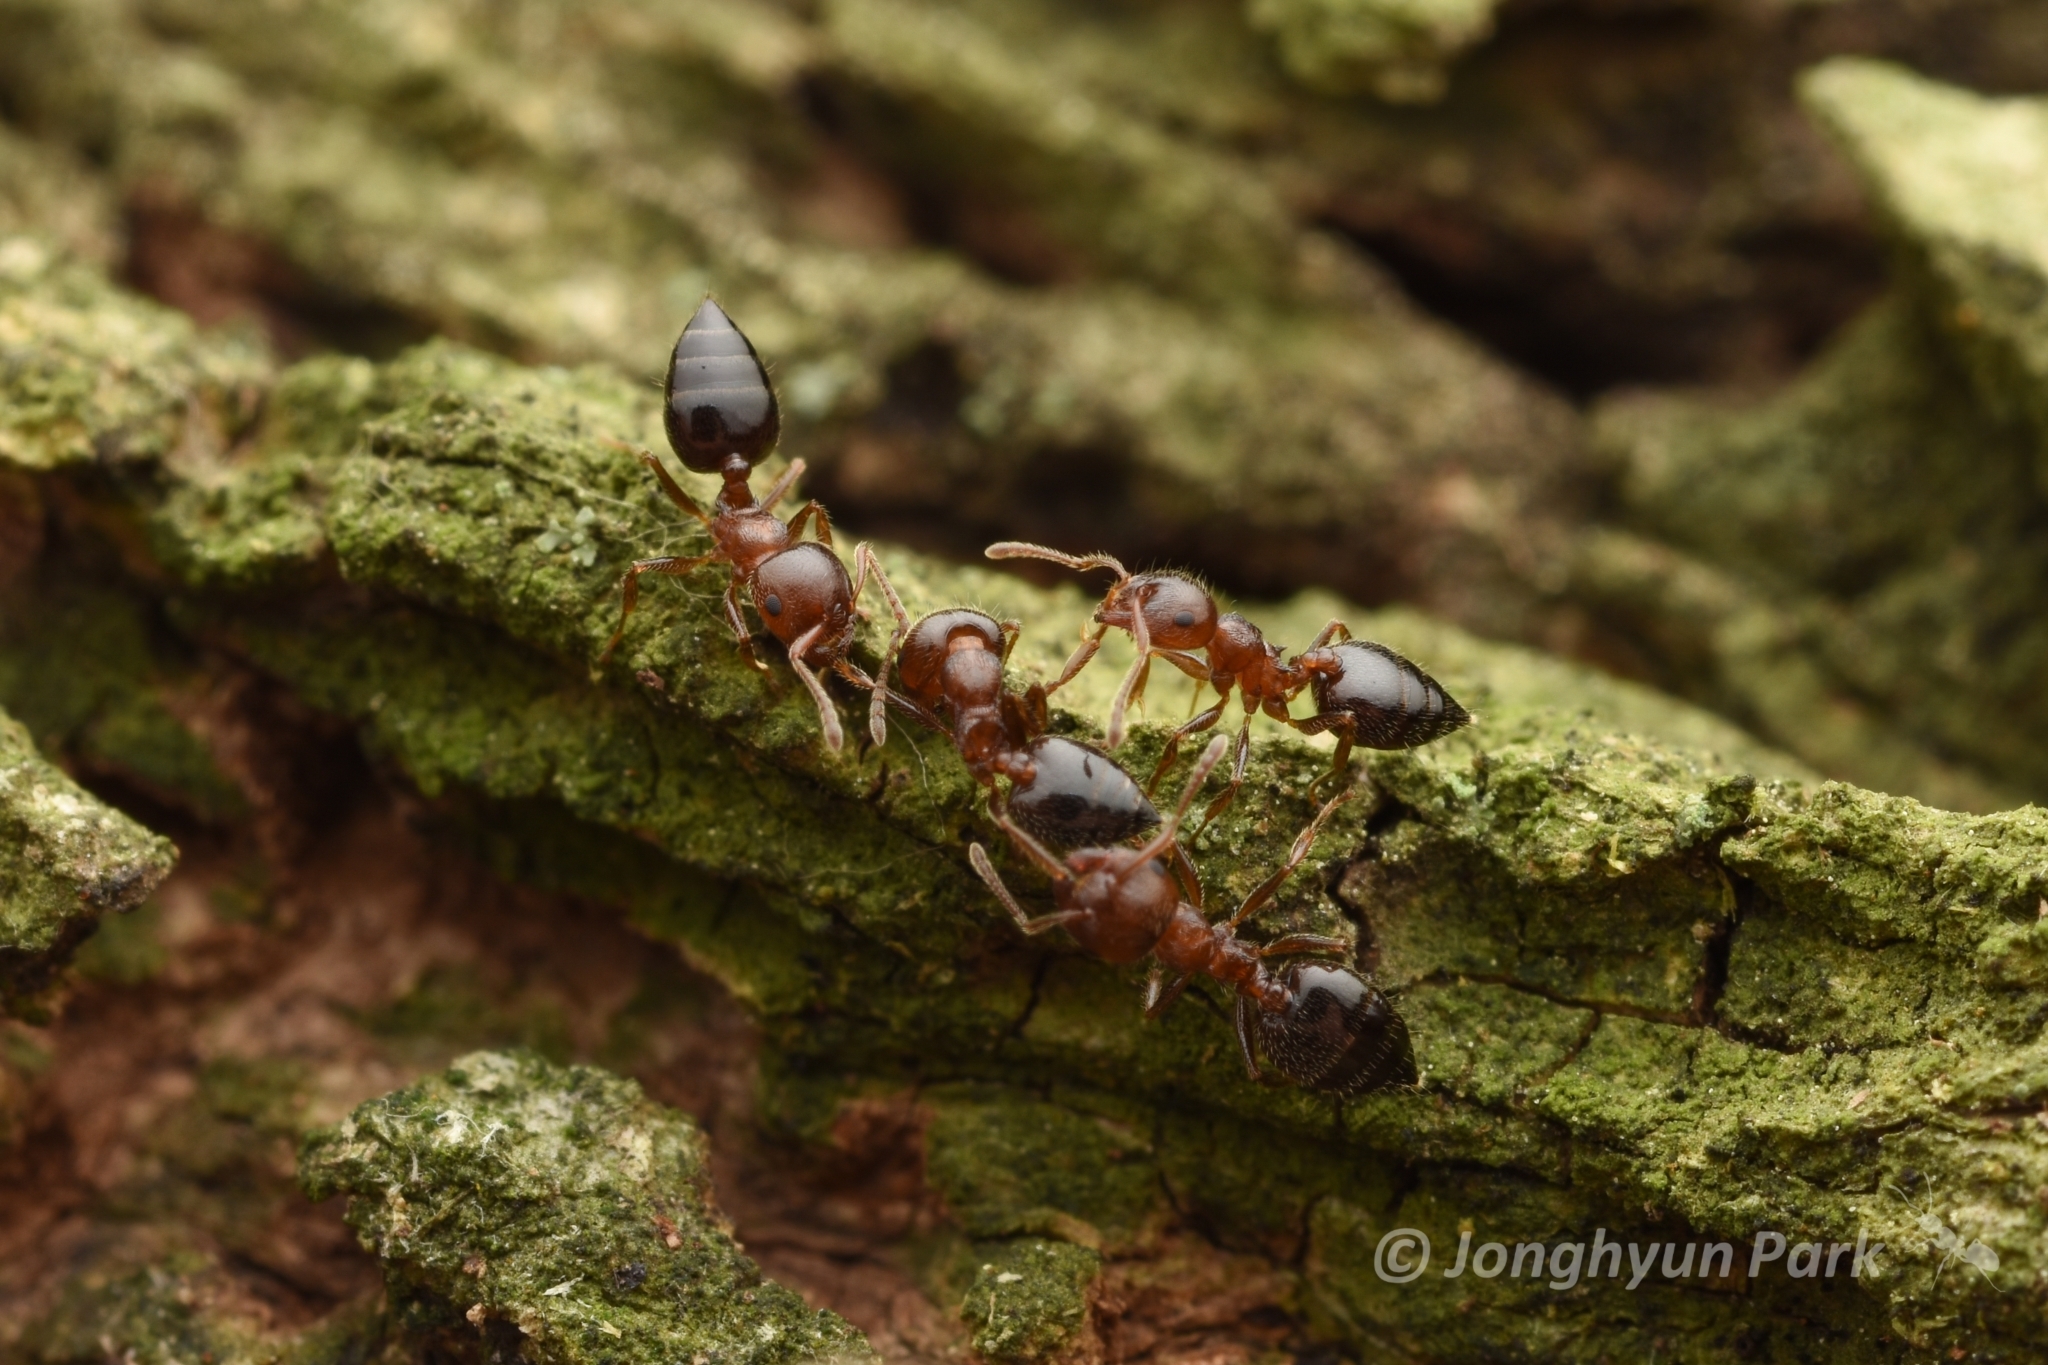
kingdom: Animalia
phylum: Arthropoda
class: Insecta
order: Hymenoptera
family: Formicidae
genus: Crematogaster
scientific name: Crematogaster matsumurai
